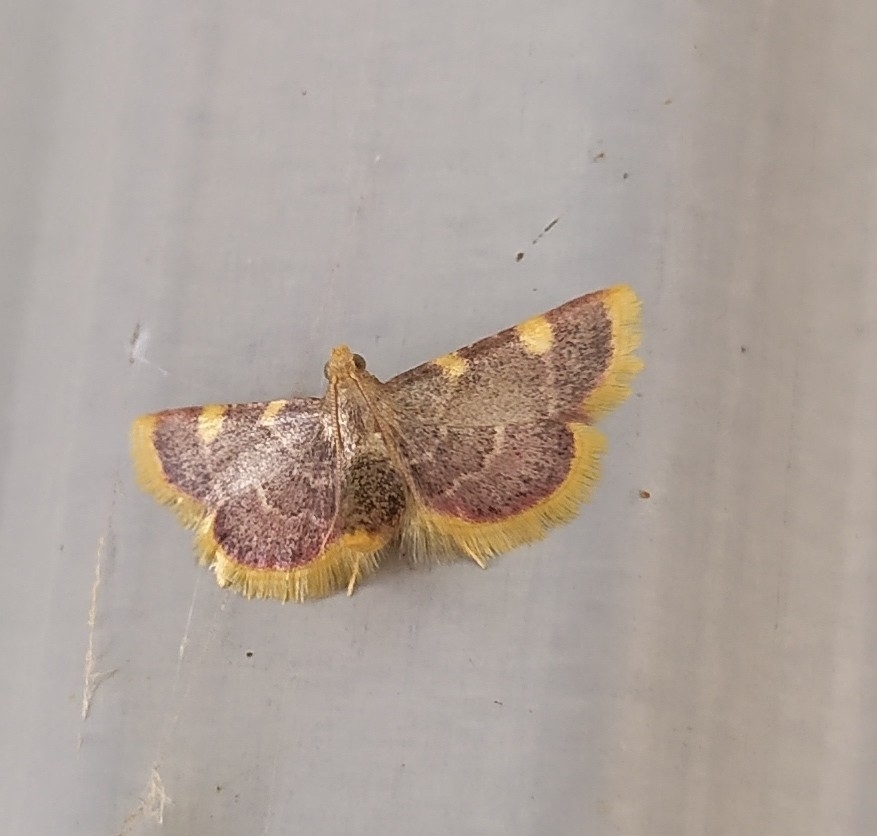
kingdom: Animalia
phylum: Arthropoda
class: Insecta
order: Lepidoptera
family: Pyralidae
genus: Hypsopygia
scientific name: Hypsopygia costalis
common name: Gold triangle
